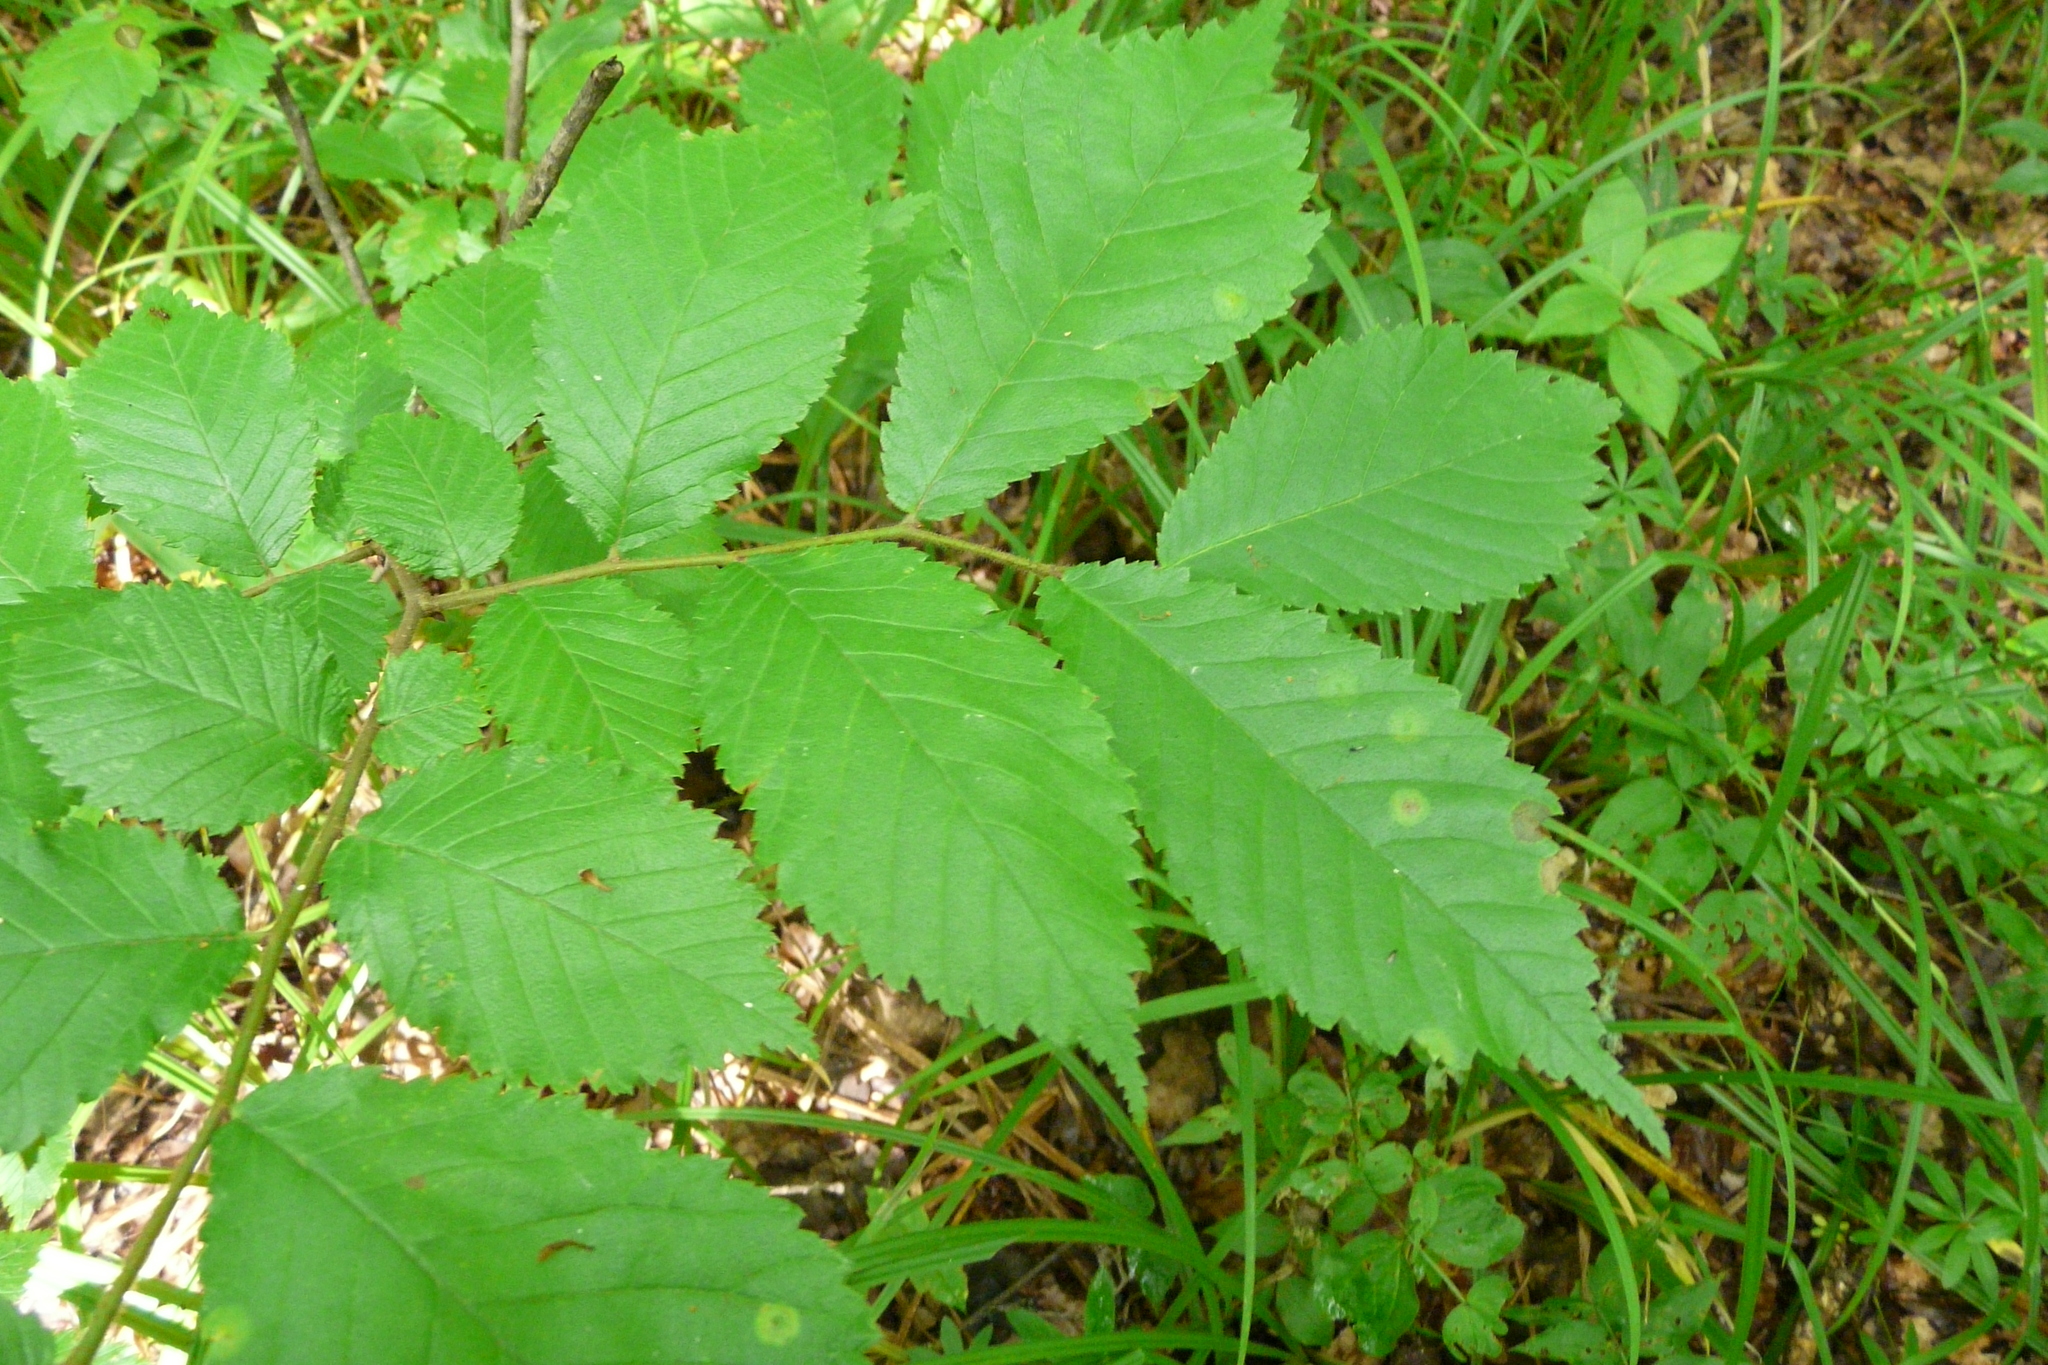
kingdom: Plantae
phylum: Tracheophyta
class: Magnoliopsida
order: Fagales
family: Betulaceae
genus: Corylus
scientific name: Corylus avellana
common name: European hazel
